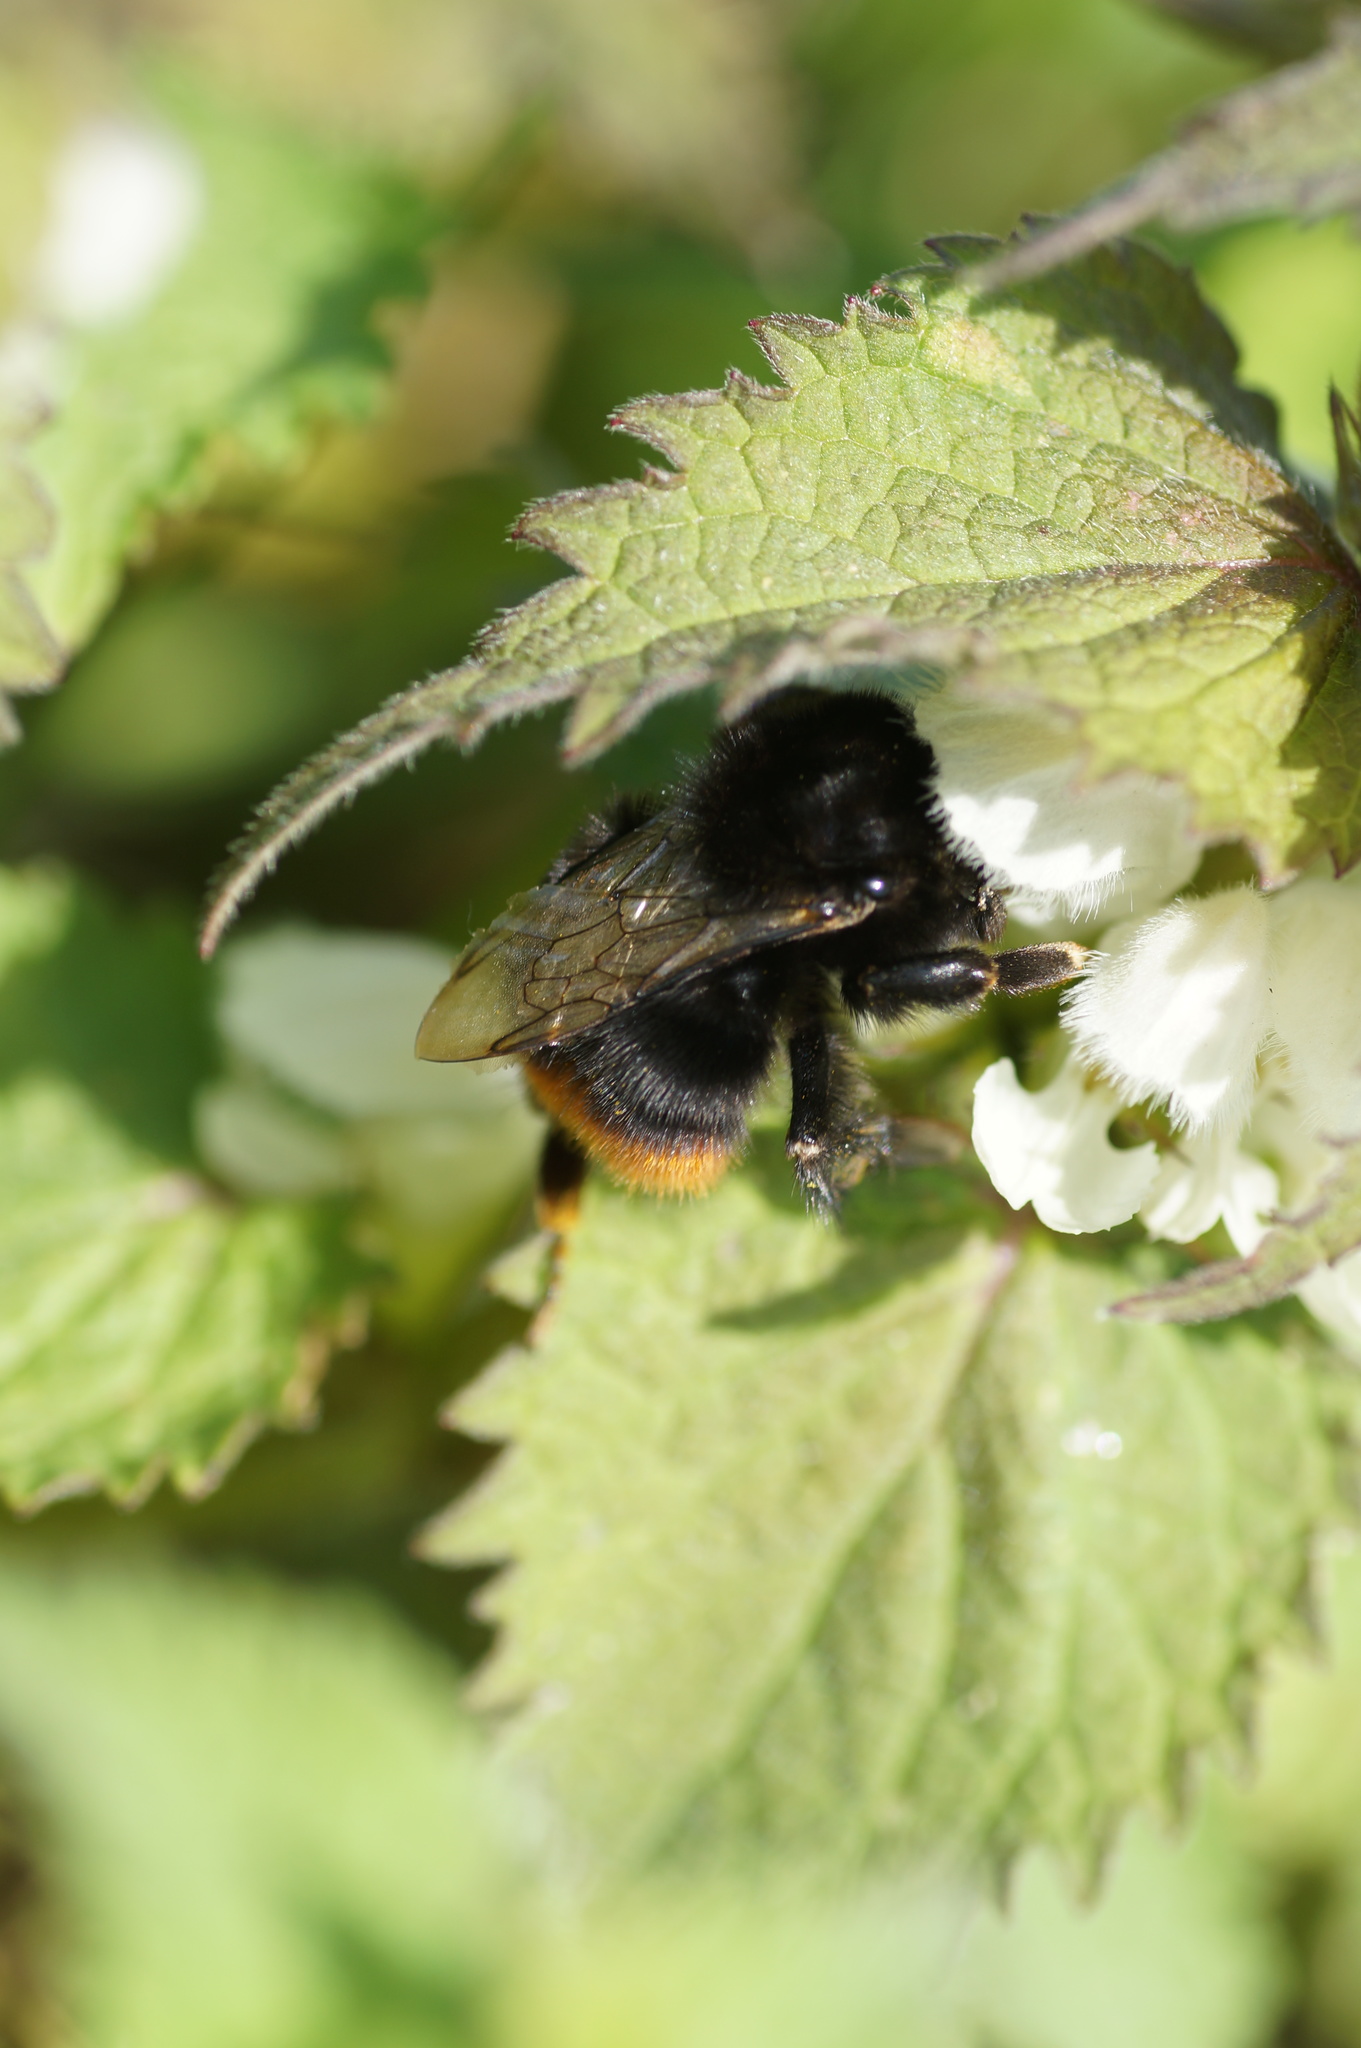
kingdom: Animalia
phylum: Arthropoda
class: Insecta
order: Hymenoptera
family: Apidae
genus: Bombus
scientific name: Bombus lapidarius
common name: Large red-tailed humble-bee
